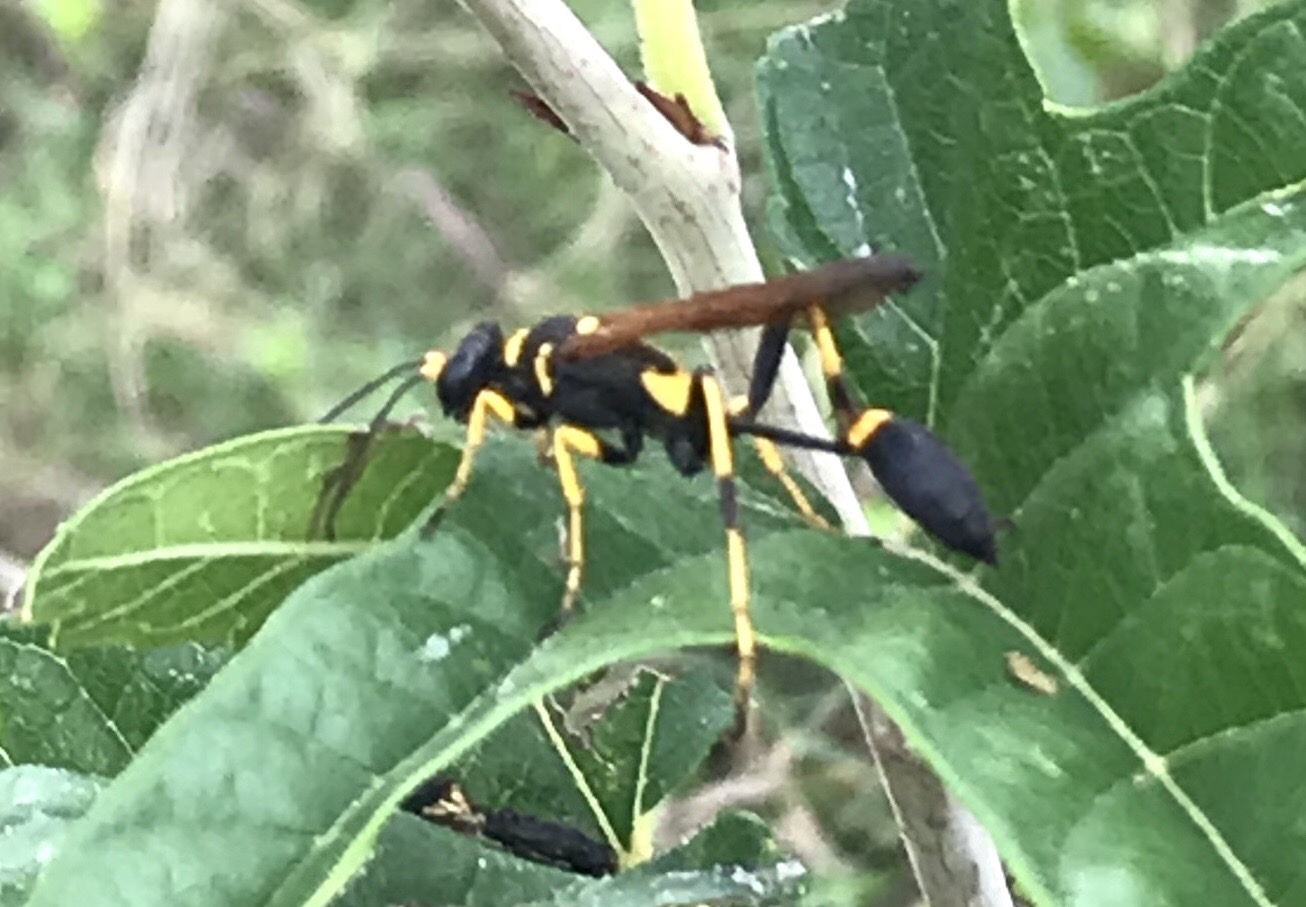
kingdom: Animalia
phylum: Arthropoda
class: Insecta
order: Hymenoptera
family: Sphecidae
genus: Sceliphron
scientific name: Sceliphron caementarium
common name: Mud dauber
